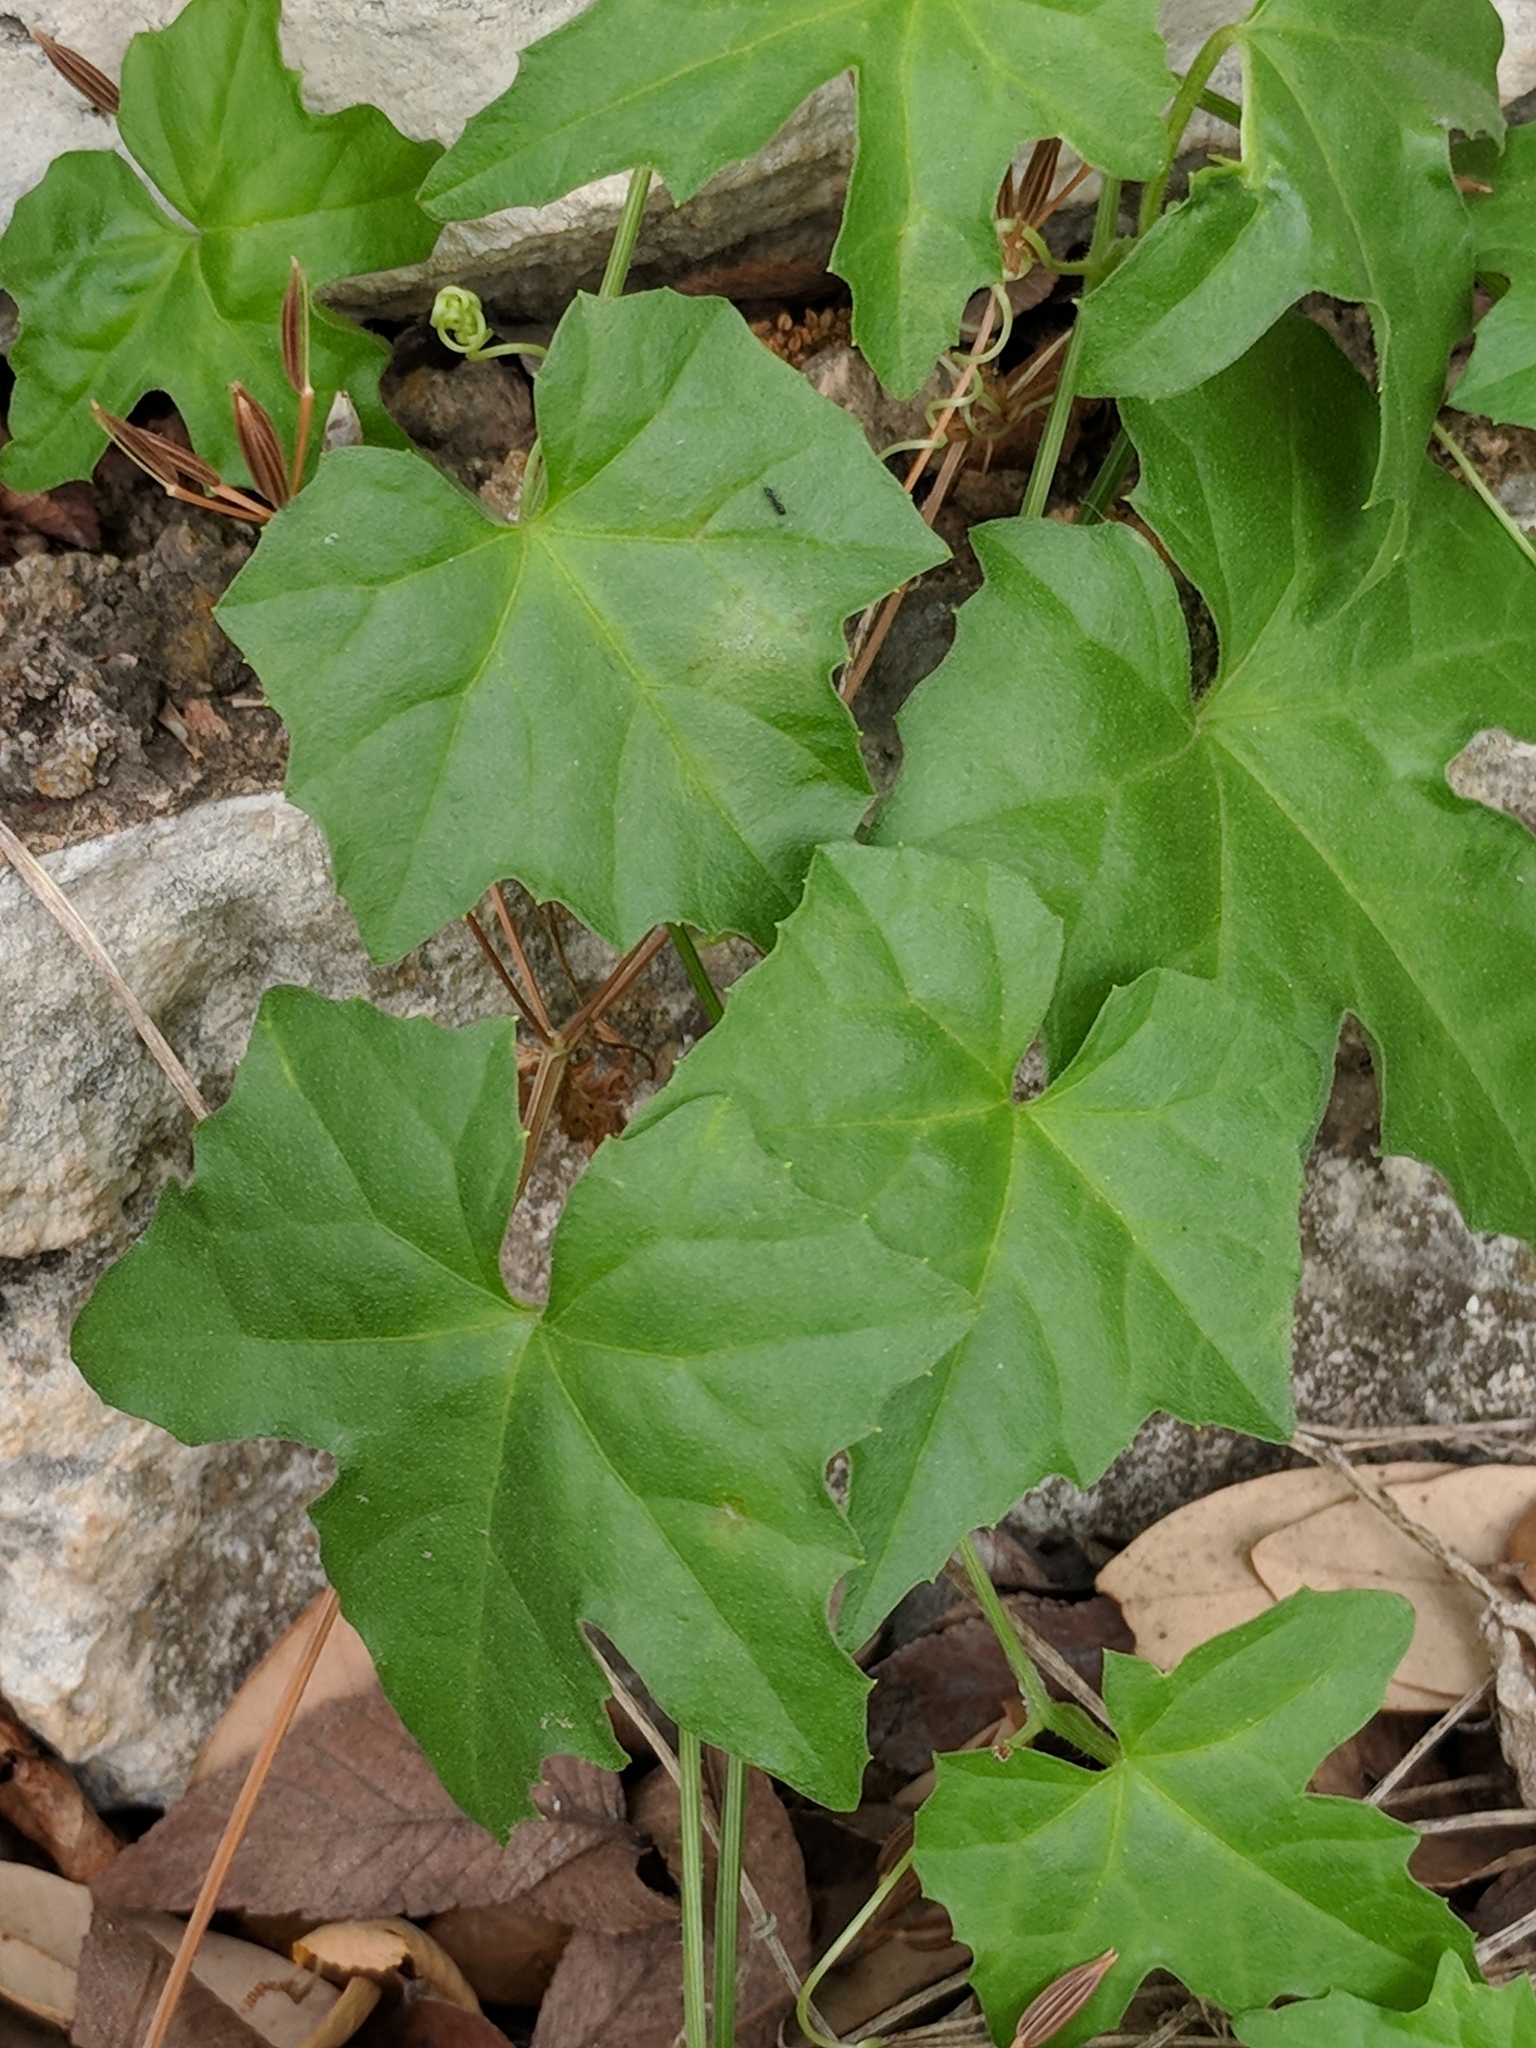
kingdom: Plantae
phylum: Tracheophyta
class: Magnoliopsida
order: Cucurbitales
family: Cucurbitaceae
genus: Ibervillea
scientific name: Ibervillea lindheimeri
